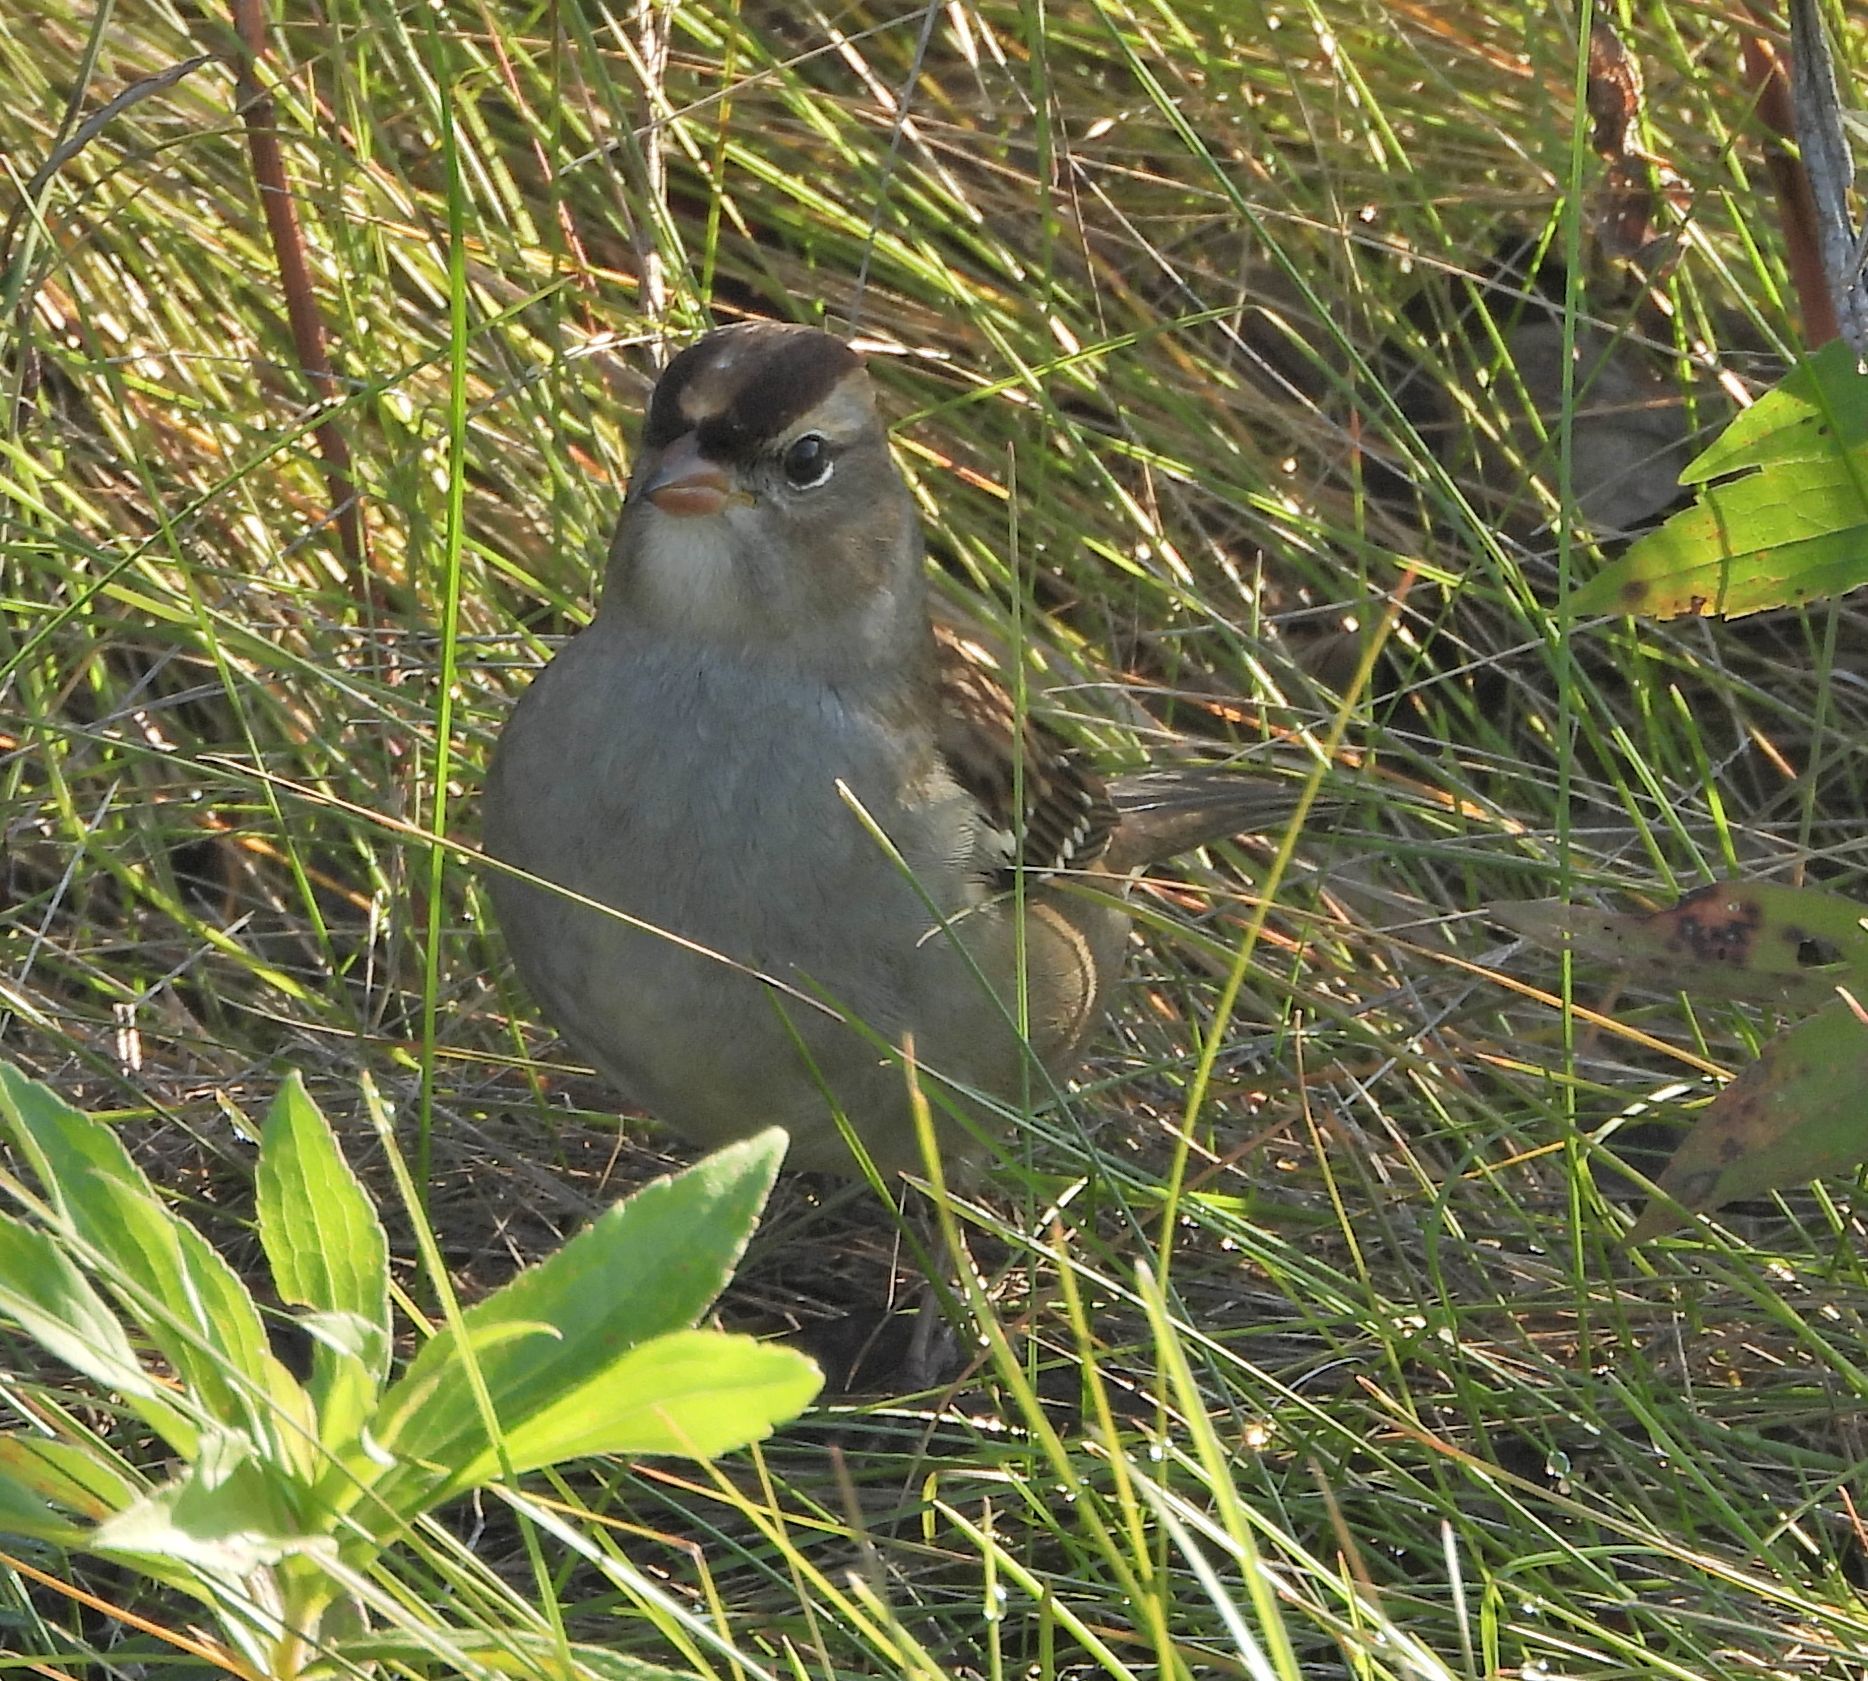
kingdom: Animalia
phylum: Chordata
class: Aves
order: Passeriformes
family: Passerellidae
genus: Zonotrichia
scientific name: Zonotrichia leucophrys
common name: White-crowned sparrow
